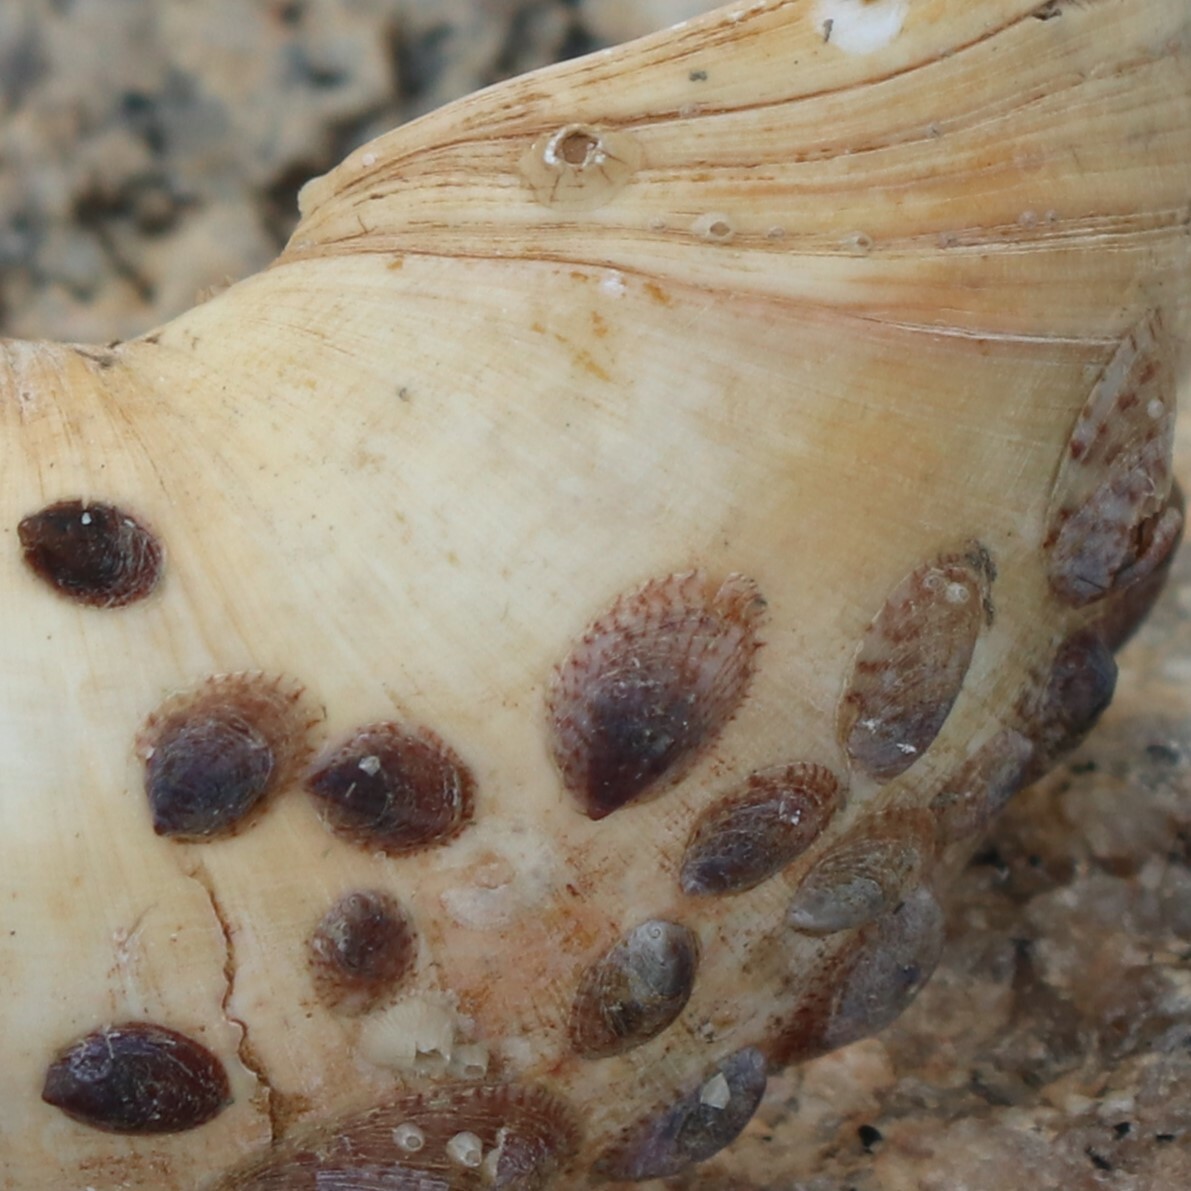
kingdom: Animalia
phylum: Mollusca
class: Gastropoda
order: Littorinimorpha
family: Calyptraeidae
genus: Crepidula
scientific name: Crepidula convexa
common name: Convex slippersnail
